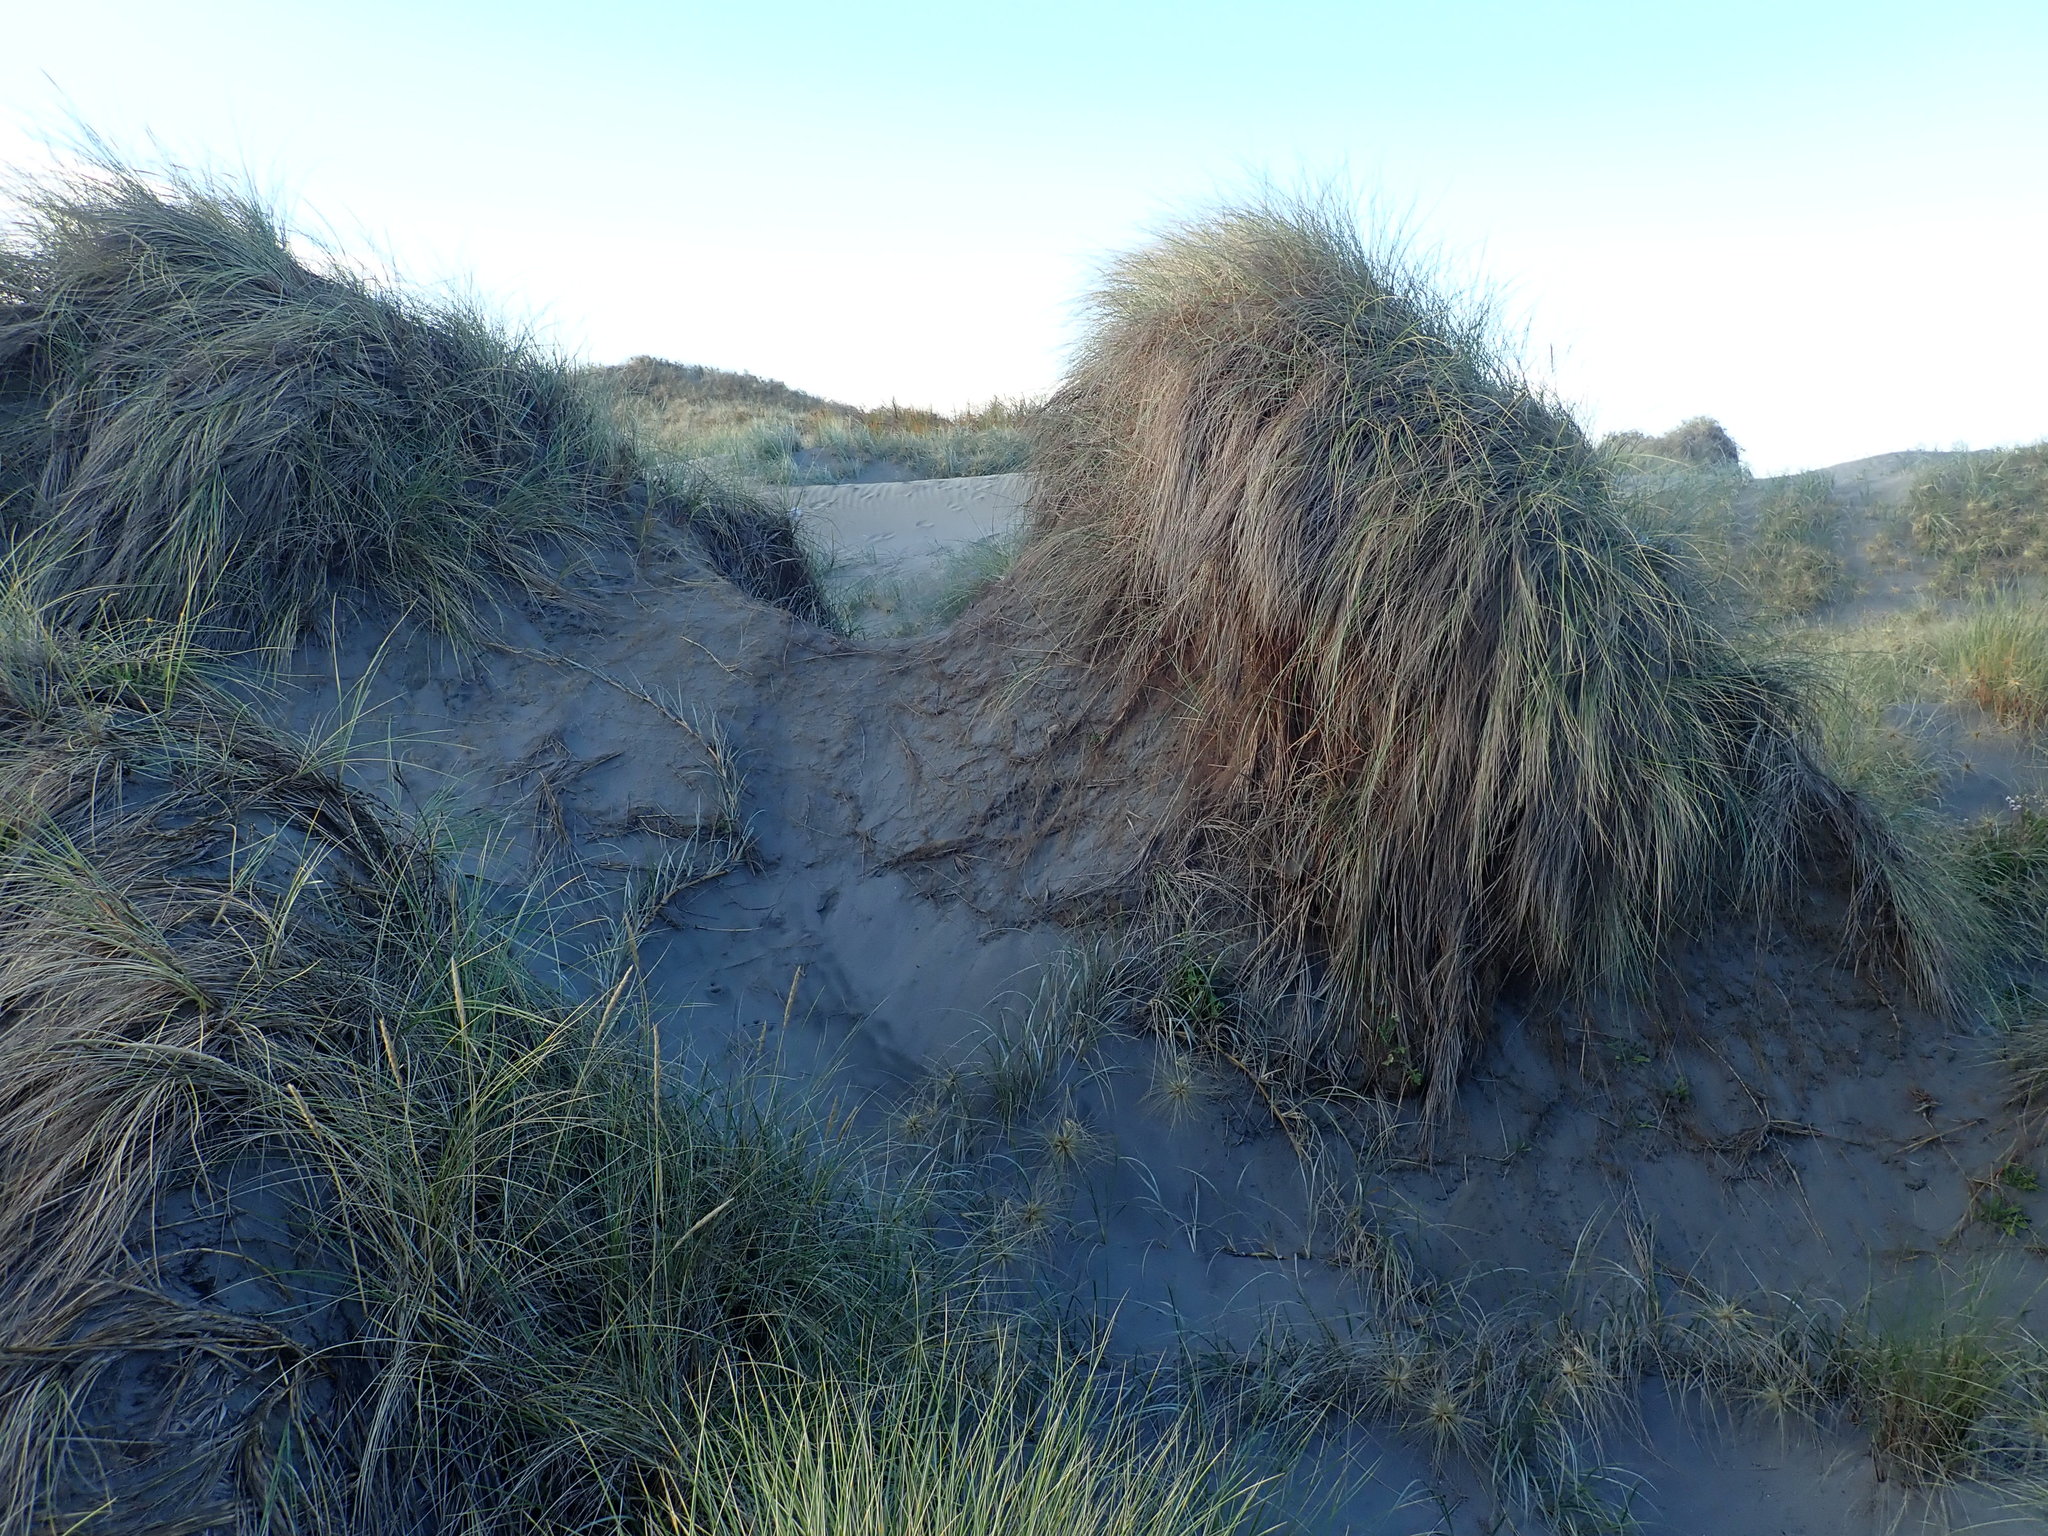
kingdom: Plantae
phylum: Tracheophyta
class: Liliopsida
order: Poales
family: Poaceae
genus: Calamagrostis
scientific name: Calamagrostis arenaria
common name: European beachgrass
